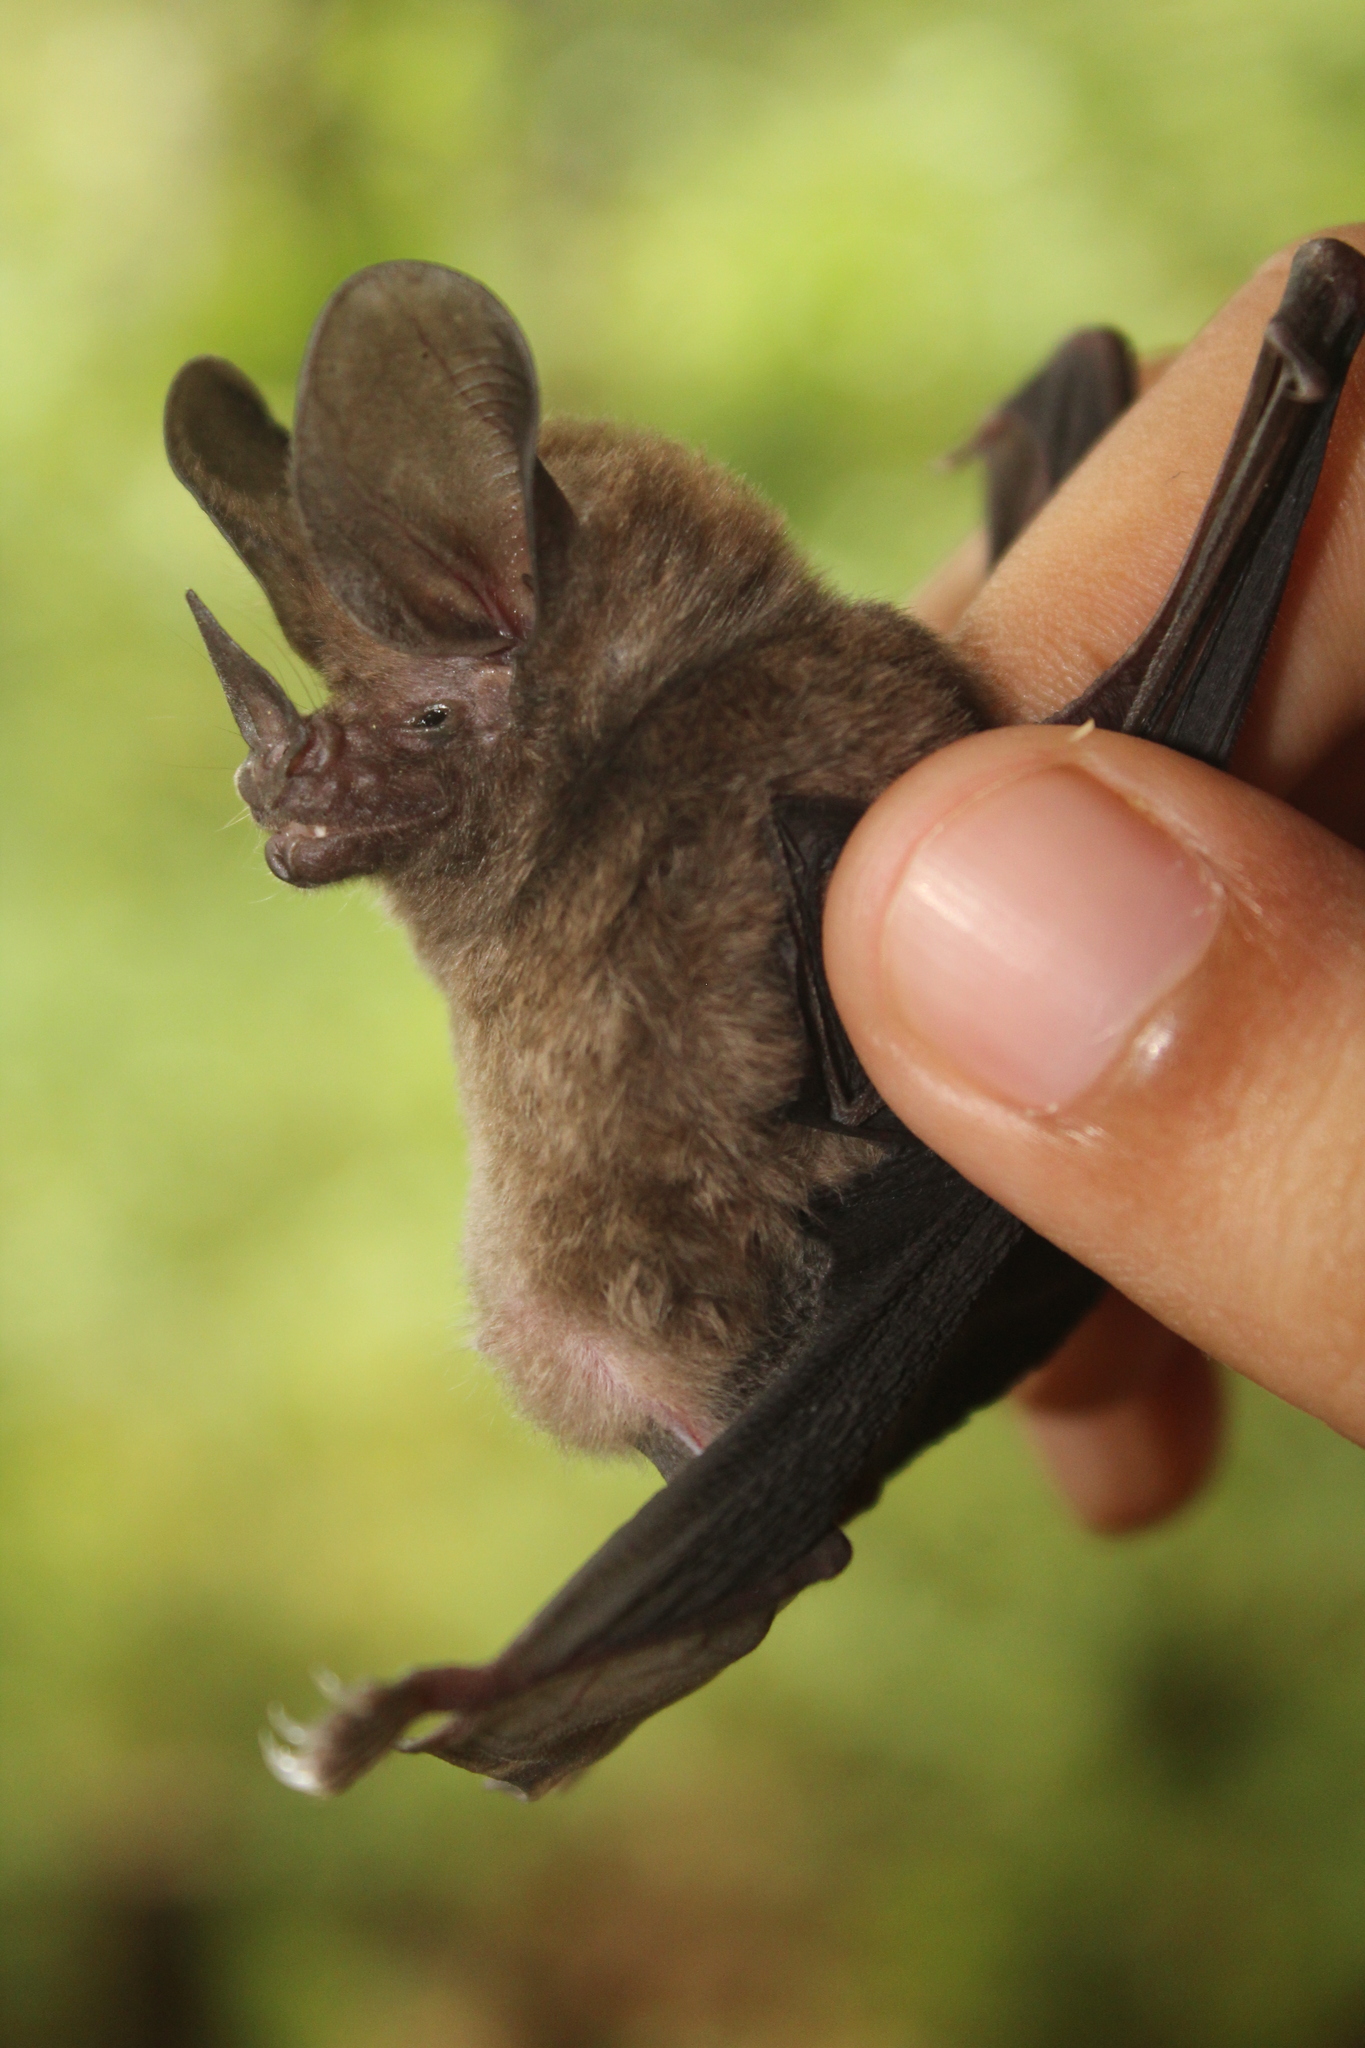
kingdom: Animalia
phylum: Chordata
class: Mammalia
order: Chiroptera
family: Phyllostomidae
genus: Micronycteris
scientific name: Micronycteris microtis
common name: Common big-eared bat
